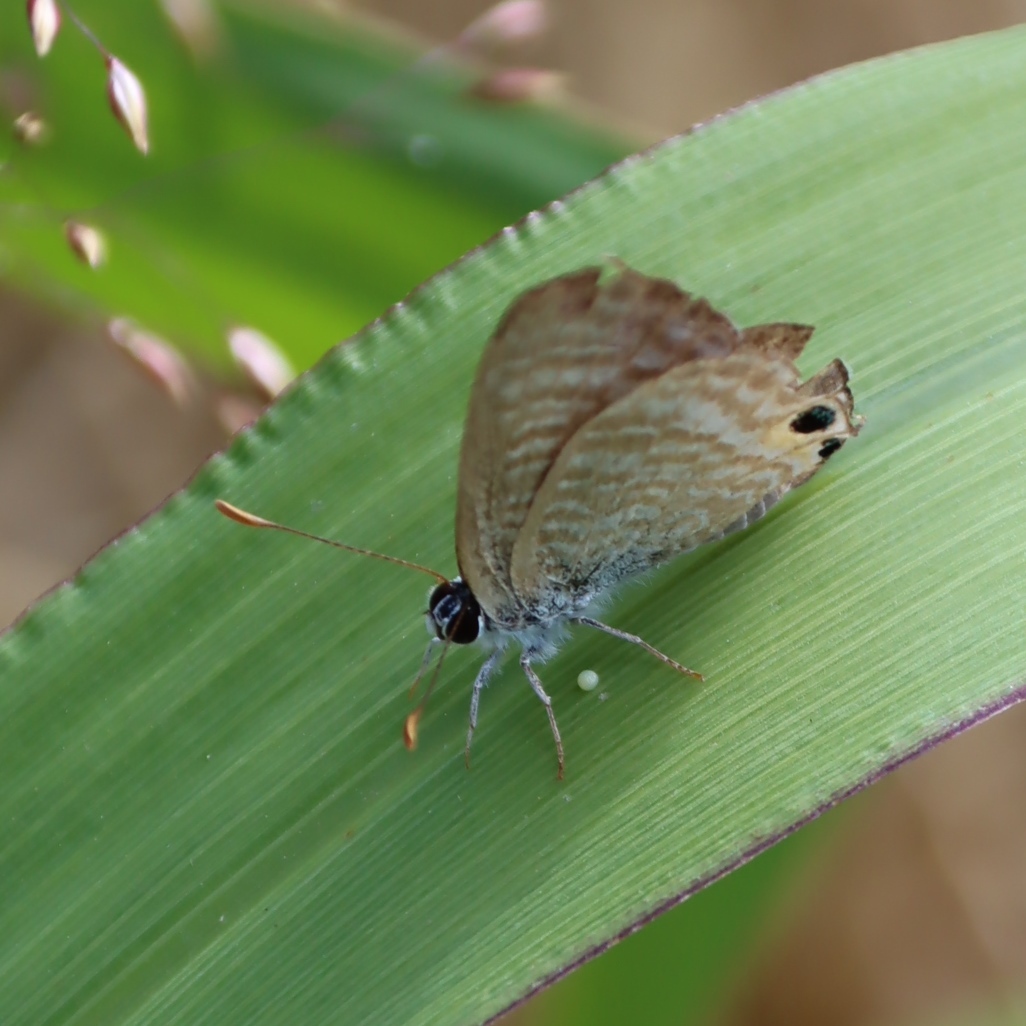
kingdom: Animalia
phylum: Arthropoda
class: Insecta
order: Lepidoptera
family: Lycaenidae
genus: Lampides
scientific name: Lampides boeticus
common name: Long-tailed blue
